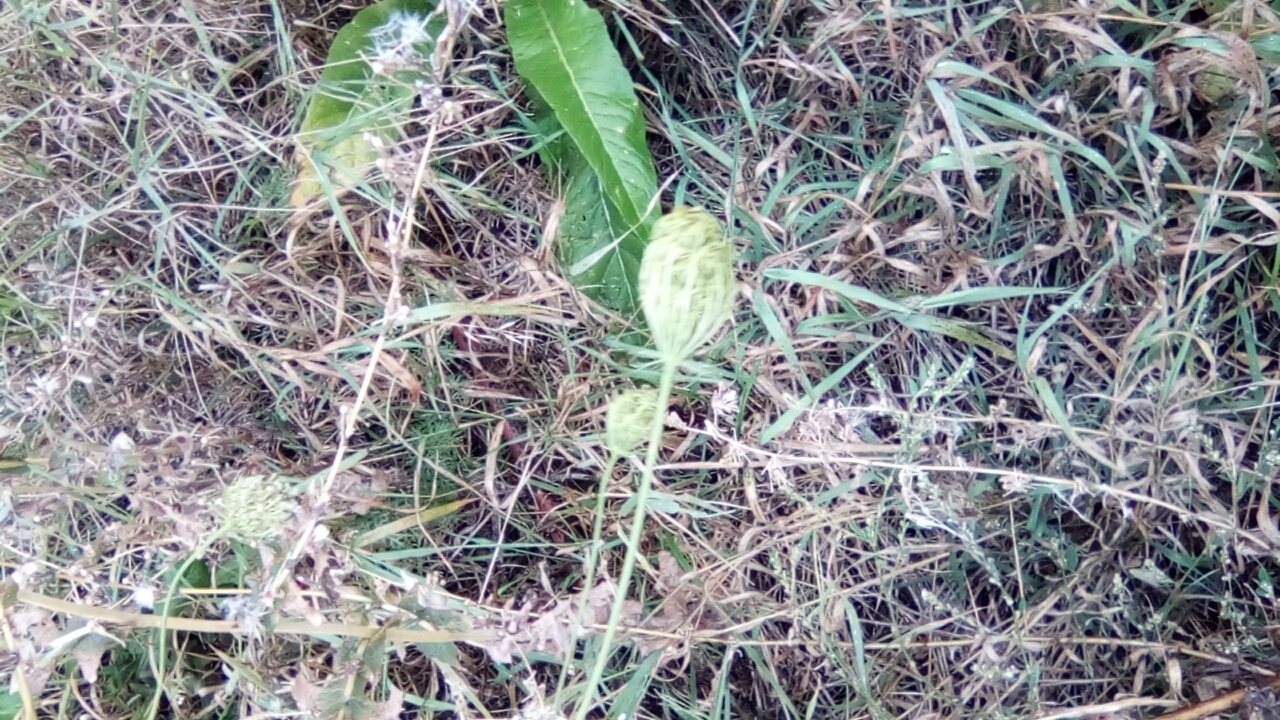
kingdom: Plantae
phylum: Tracheophyta
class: Magnoliopsida
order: Apiales
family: Apiaceae
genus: Daucus
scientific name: Daucus carota
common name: Wild carrot
